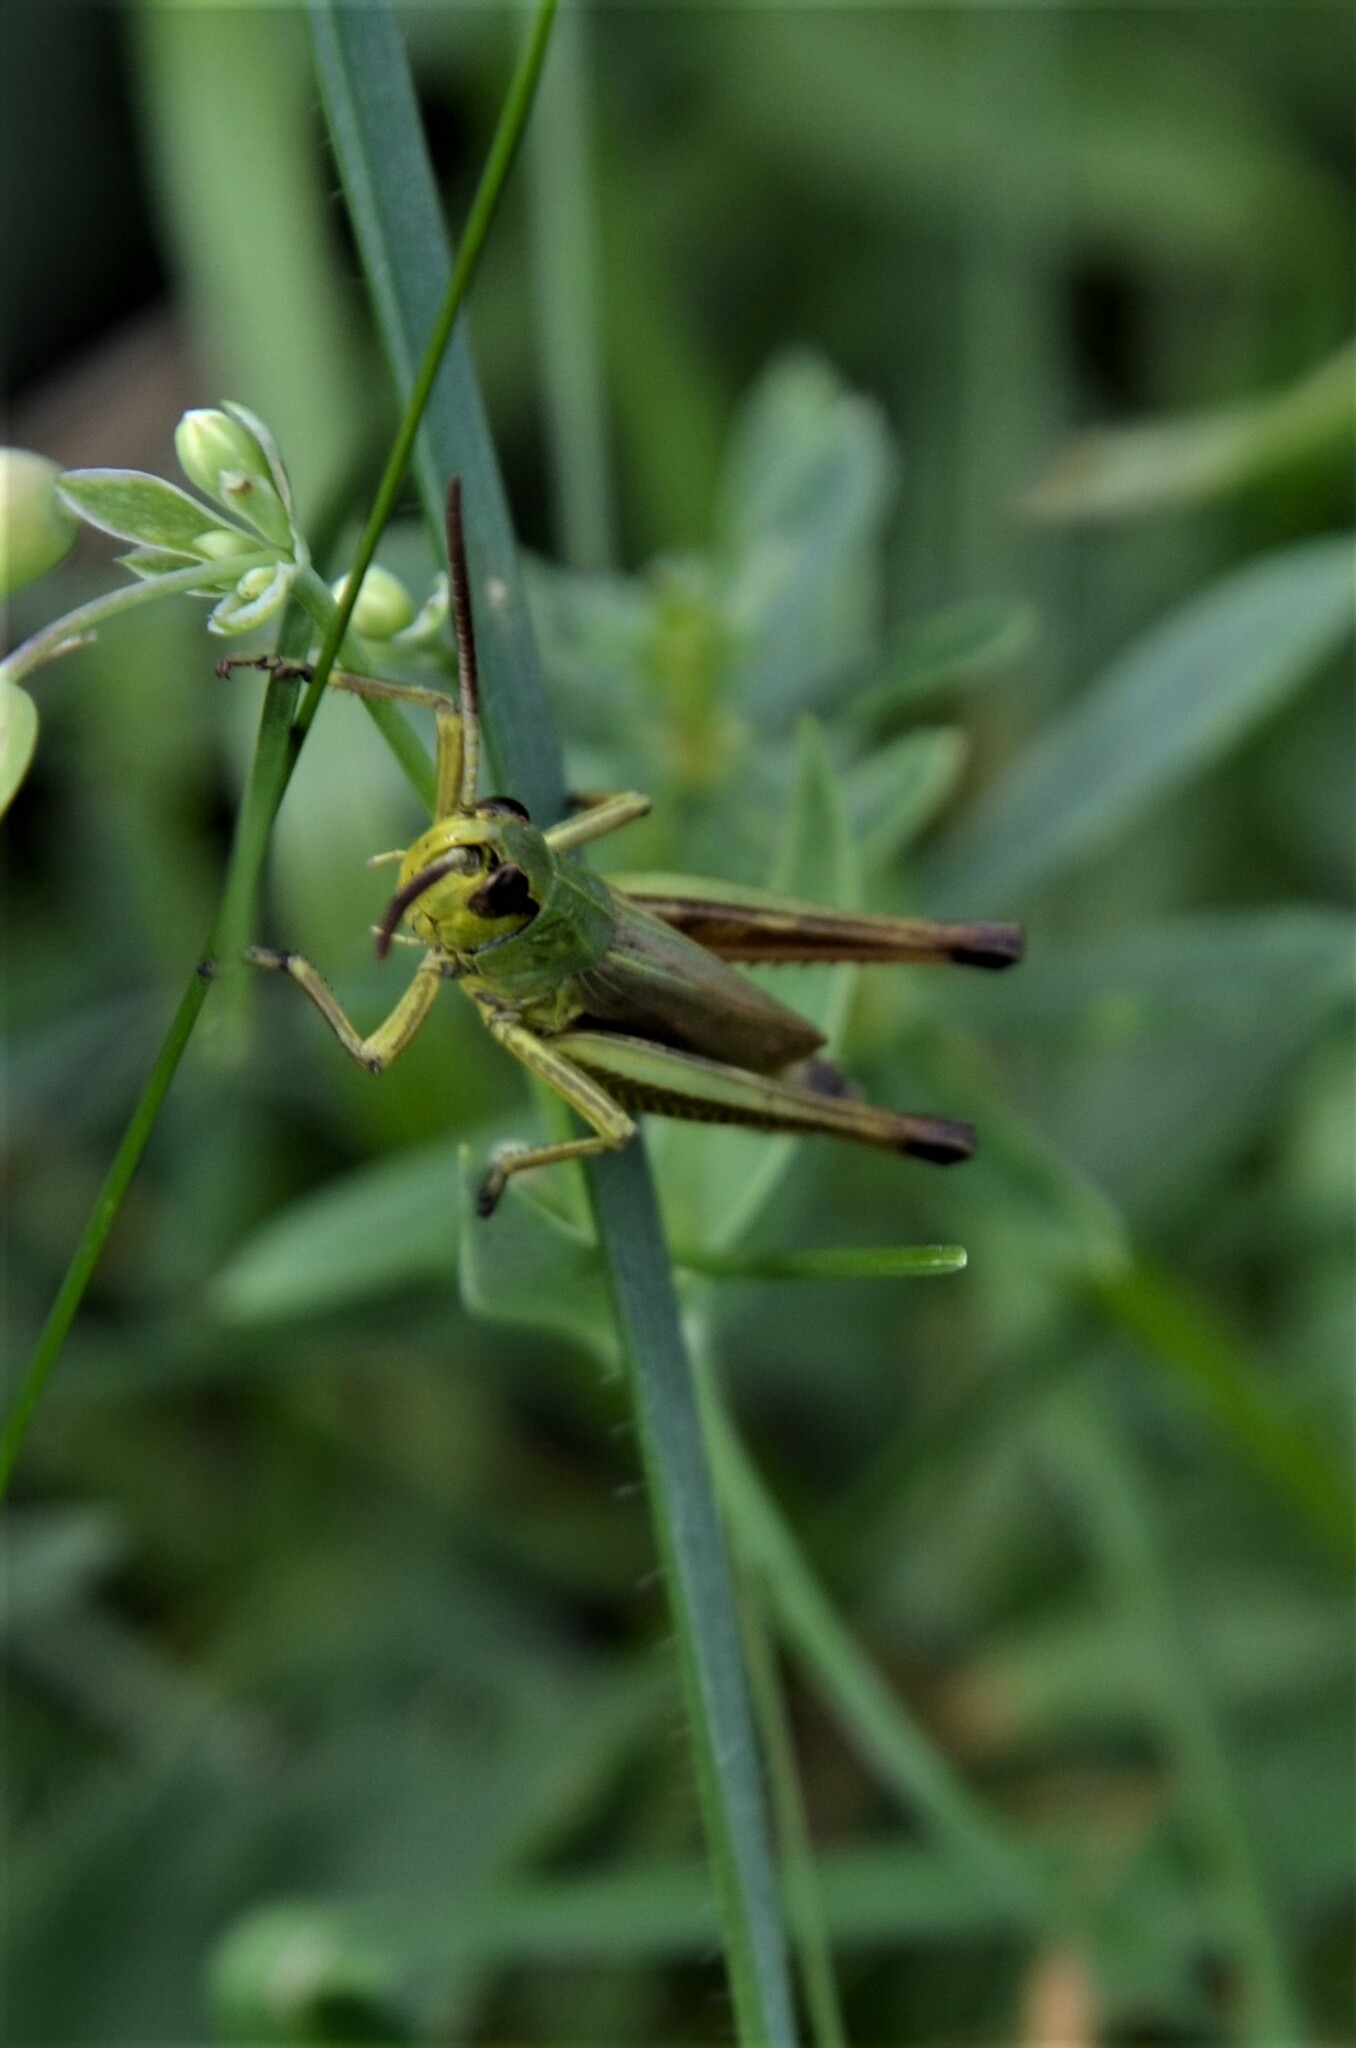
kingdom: Animalia
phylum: Arthropoda
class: Insecta
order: Orthoptera
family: Acrididae
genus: Pseudochorthippus
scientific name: Pseudochorthippus parallelus
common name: Meadow grasshopper
